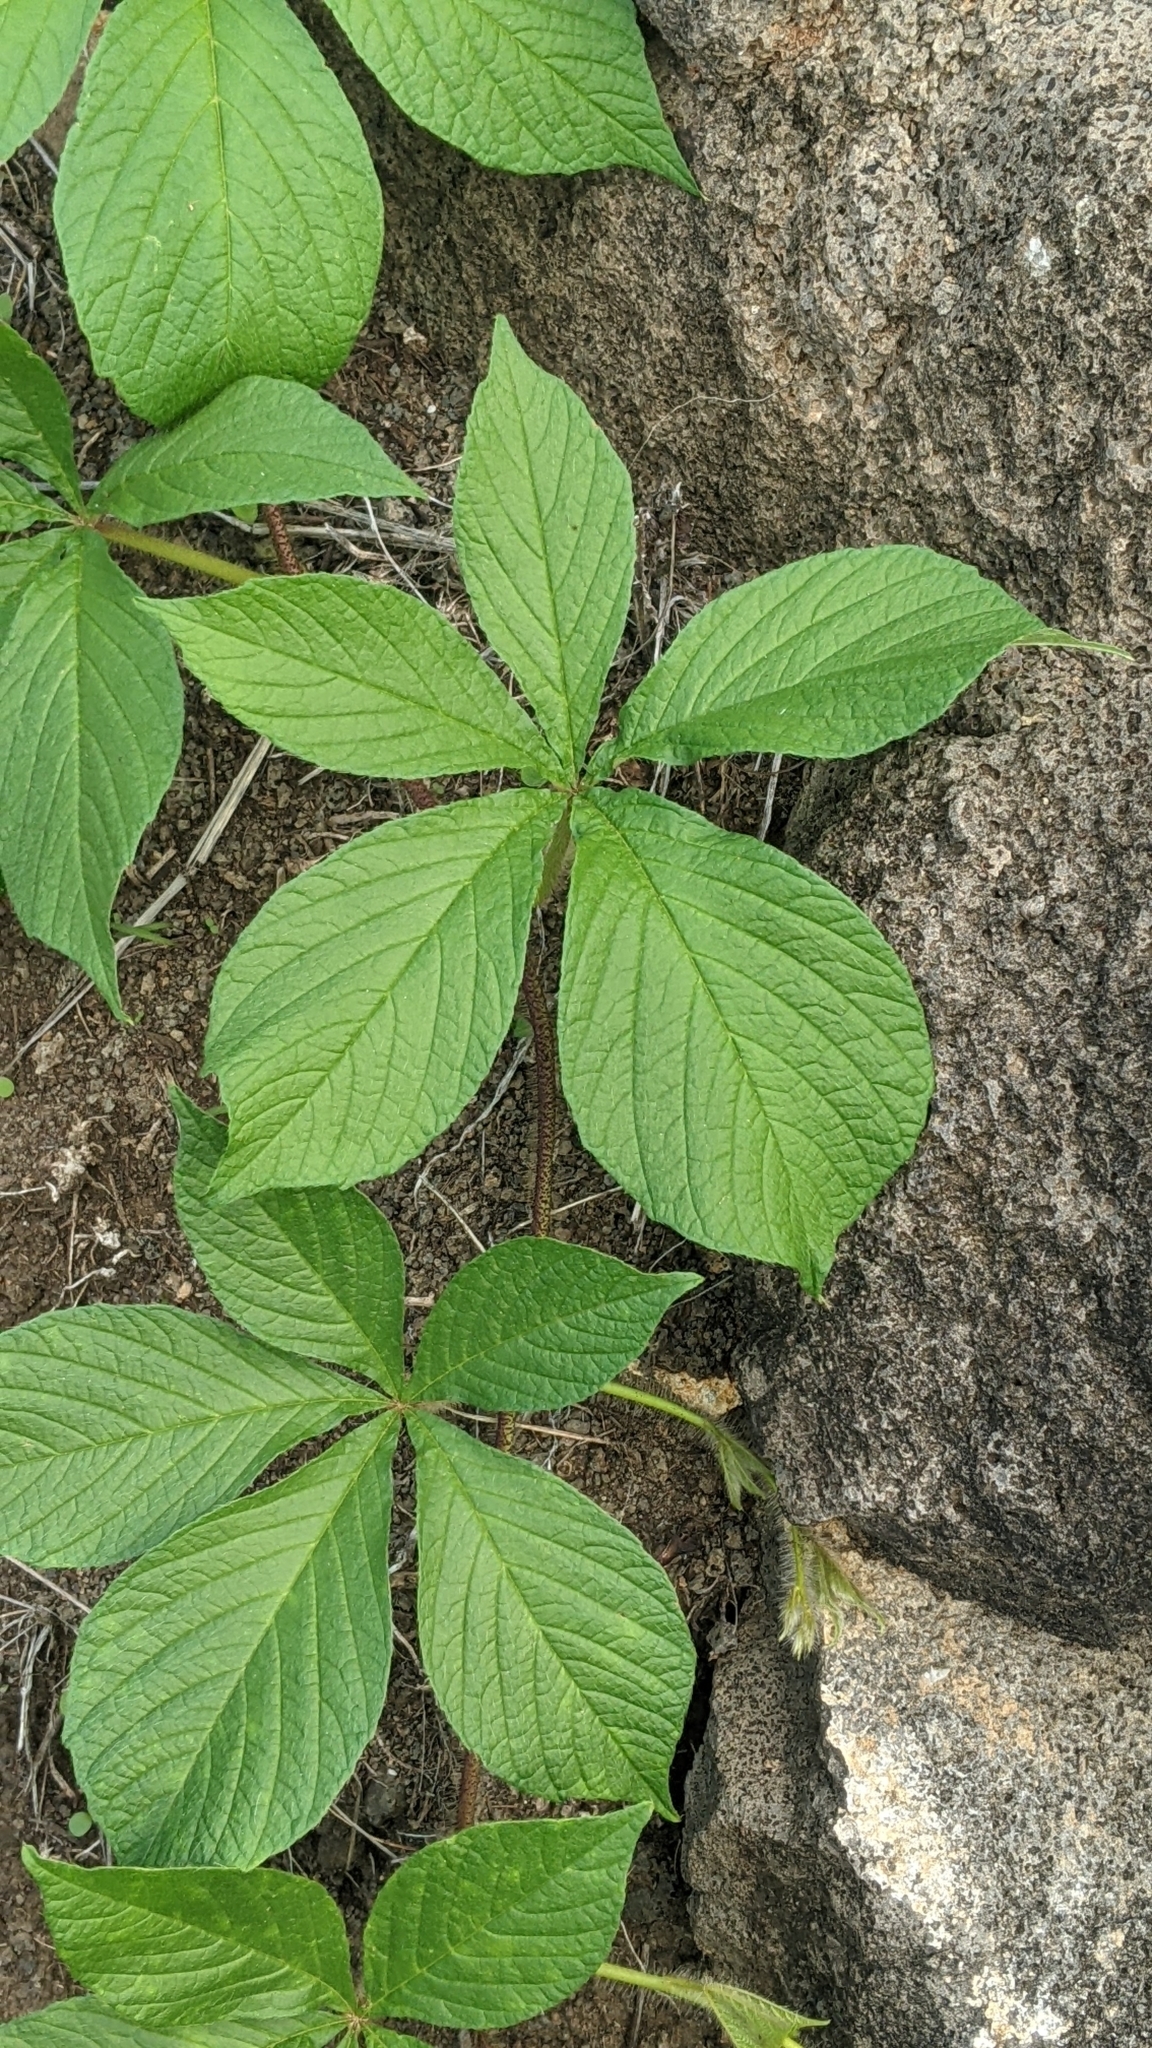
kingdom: Plantae
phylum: Tracheophyta
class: Magnoliopsida
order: Solanales
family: Convolvulaceae
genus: Distimake
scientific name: Distimake aegyptius
